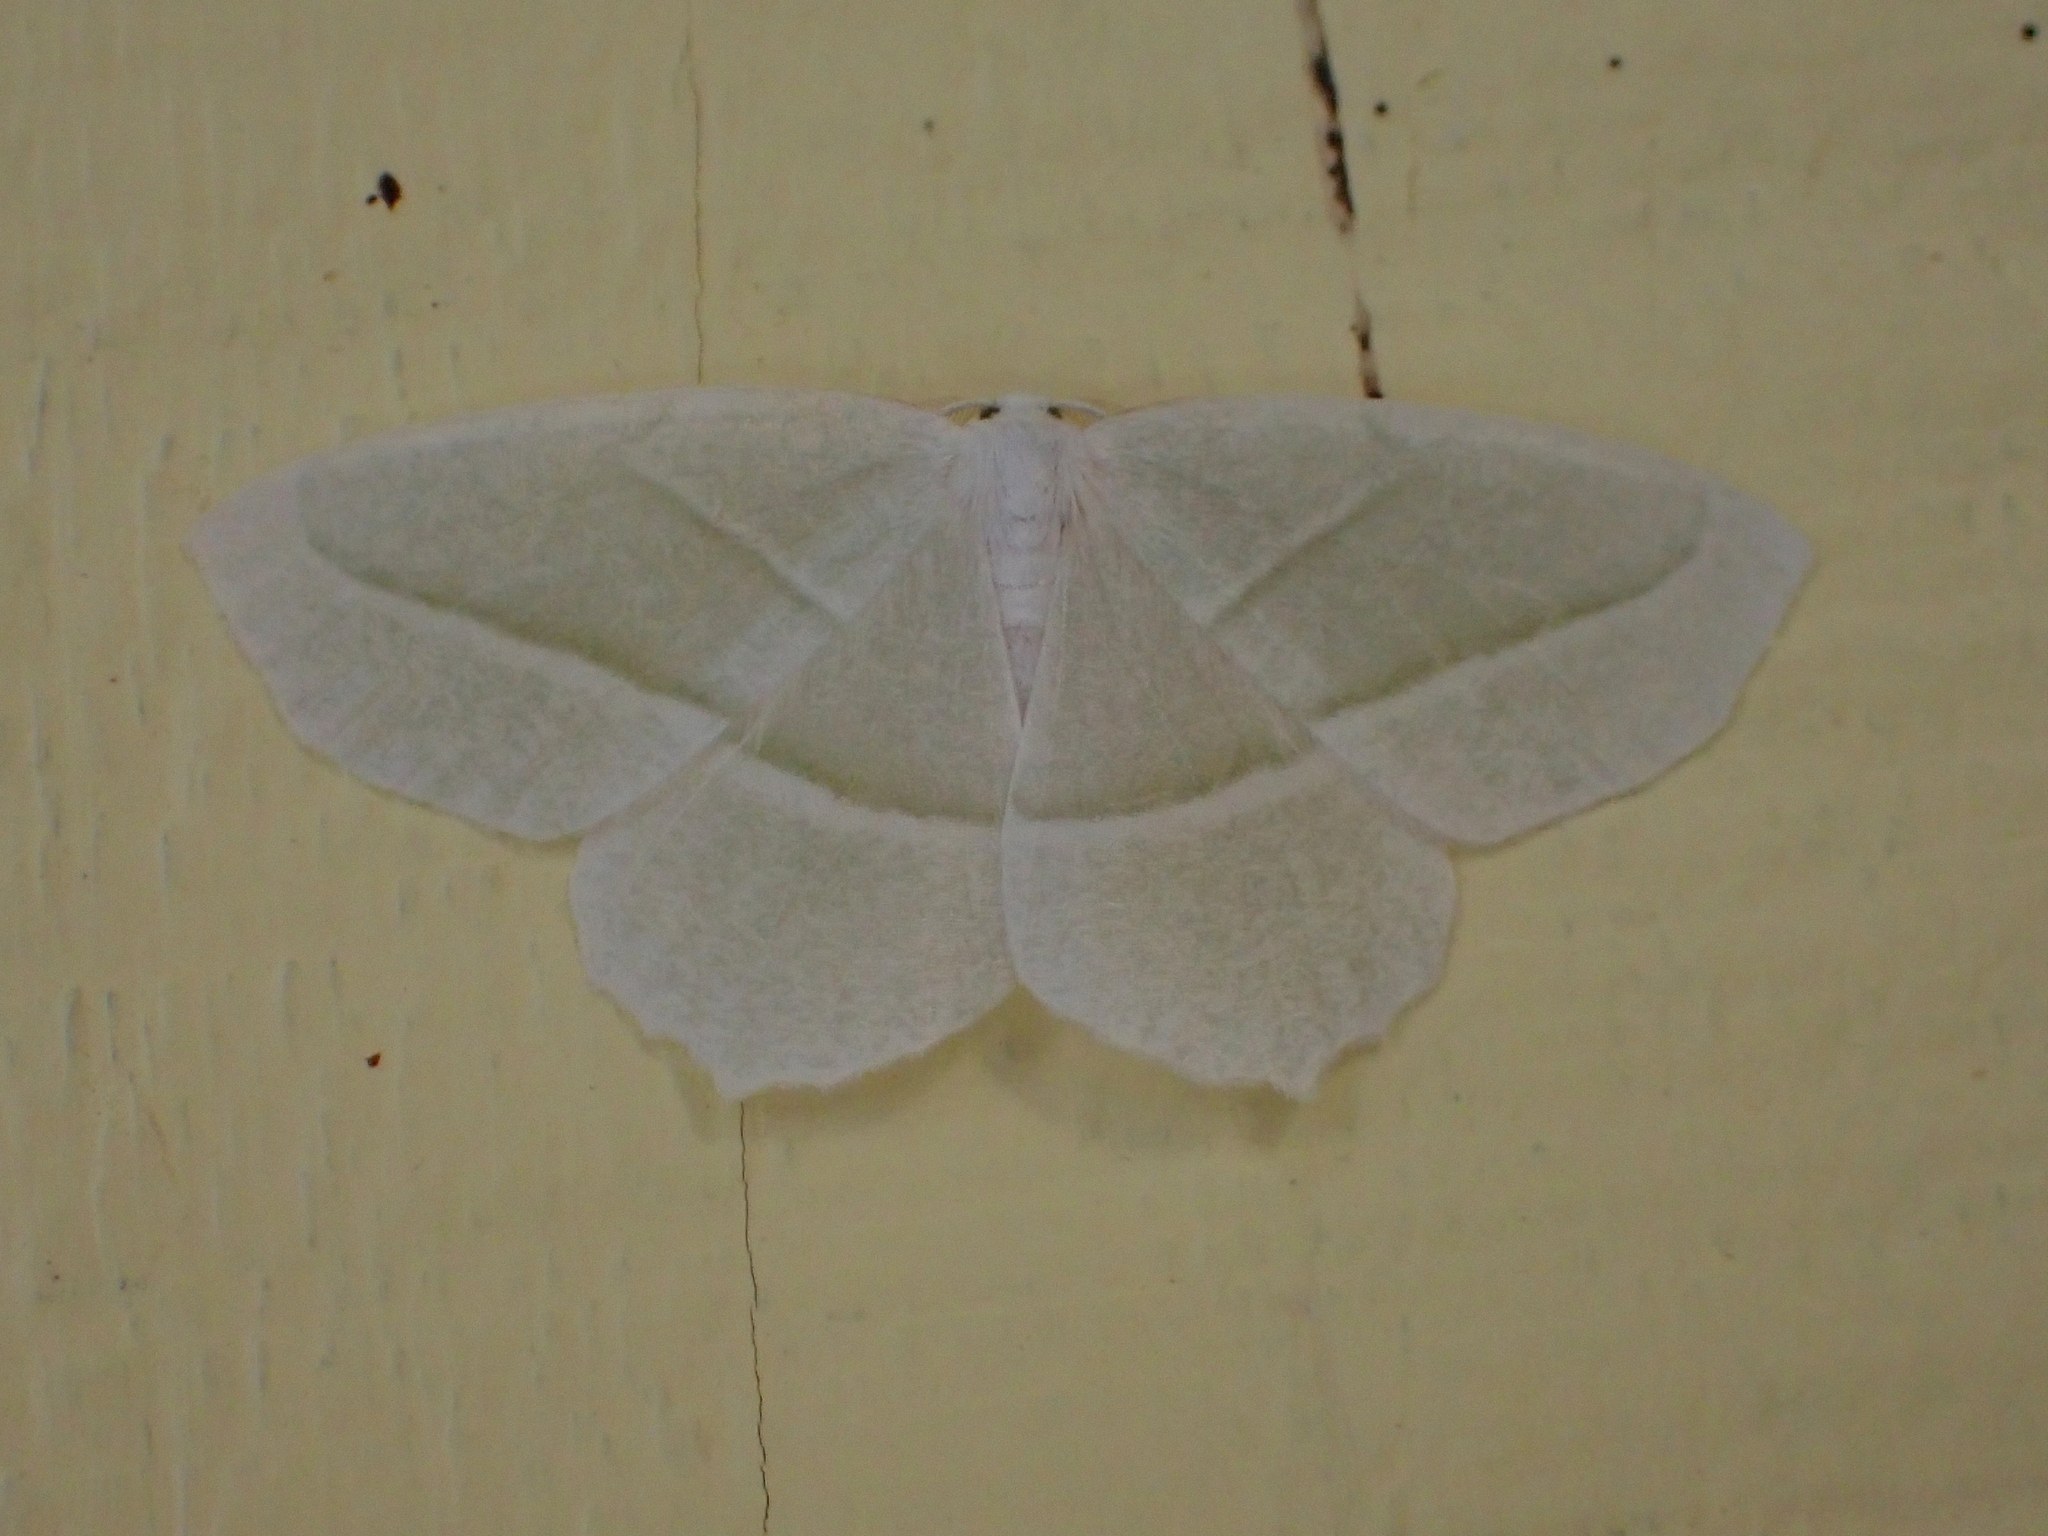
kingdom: Animalia
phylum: Arthropoda
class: Insecta
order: Lepidoptera
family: Geometridae
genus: Campaea
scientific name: Campaea perlata
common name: Fringed looper
